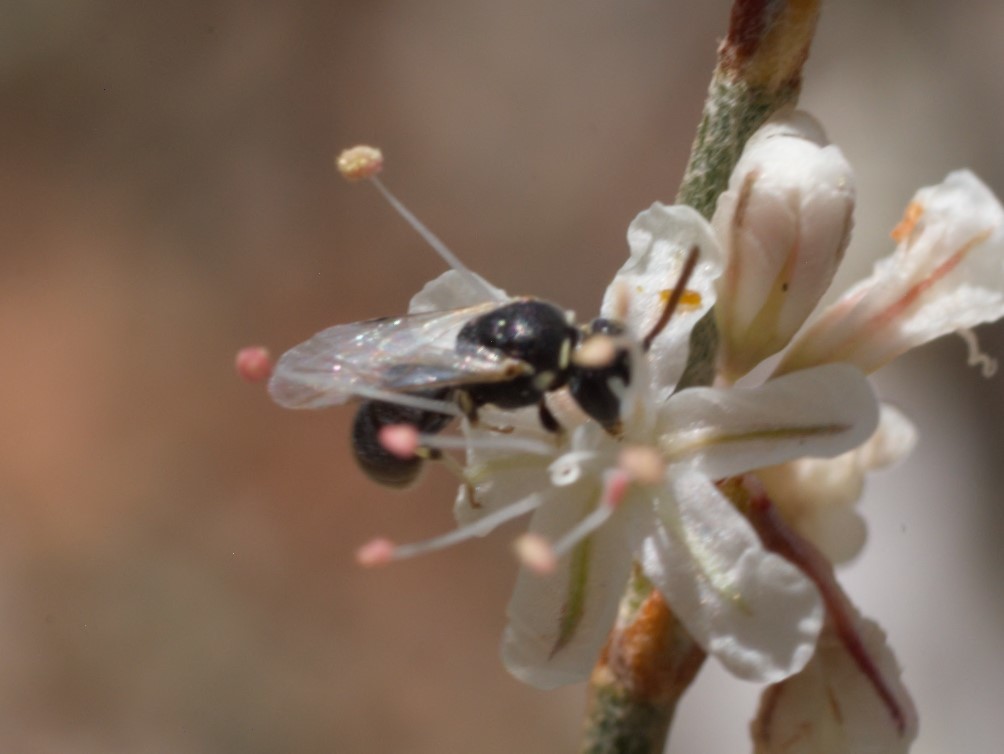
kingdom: Animalia
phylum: Arthropoda
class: Insecta
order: Hymenoptera
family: Colletidae
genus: Hylaeus
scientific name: Hylaeus
